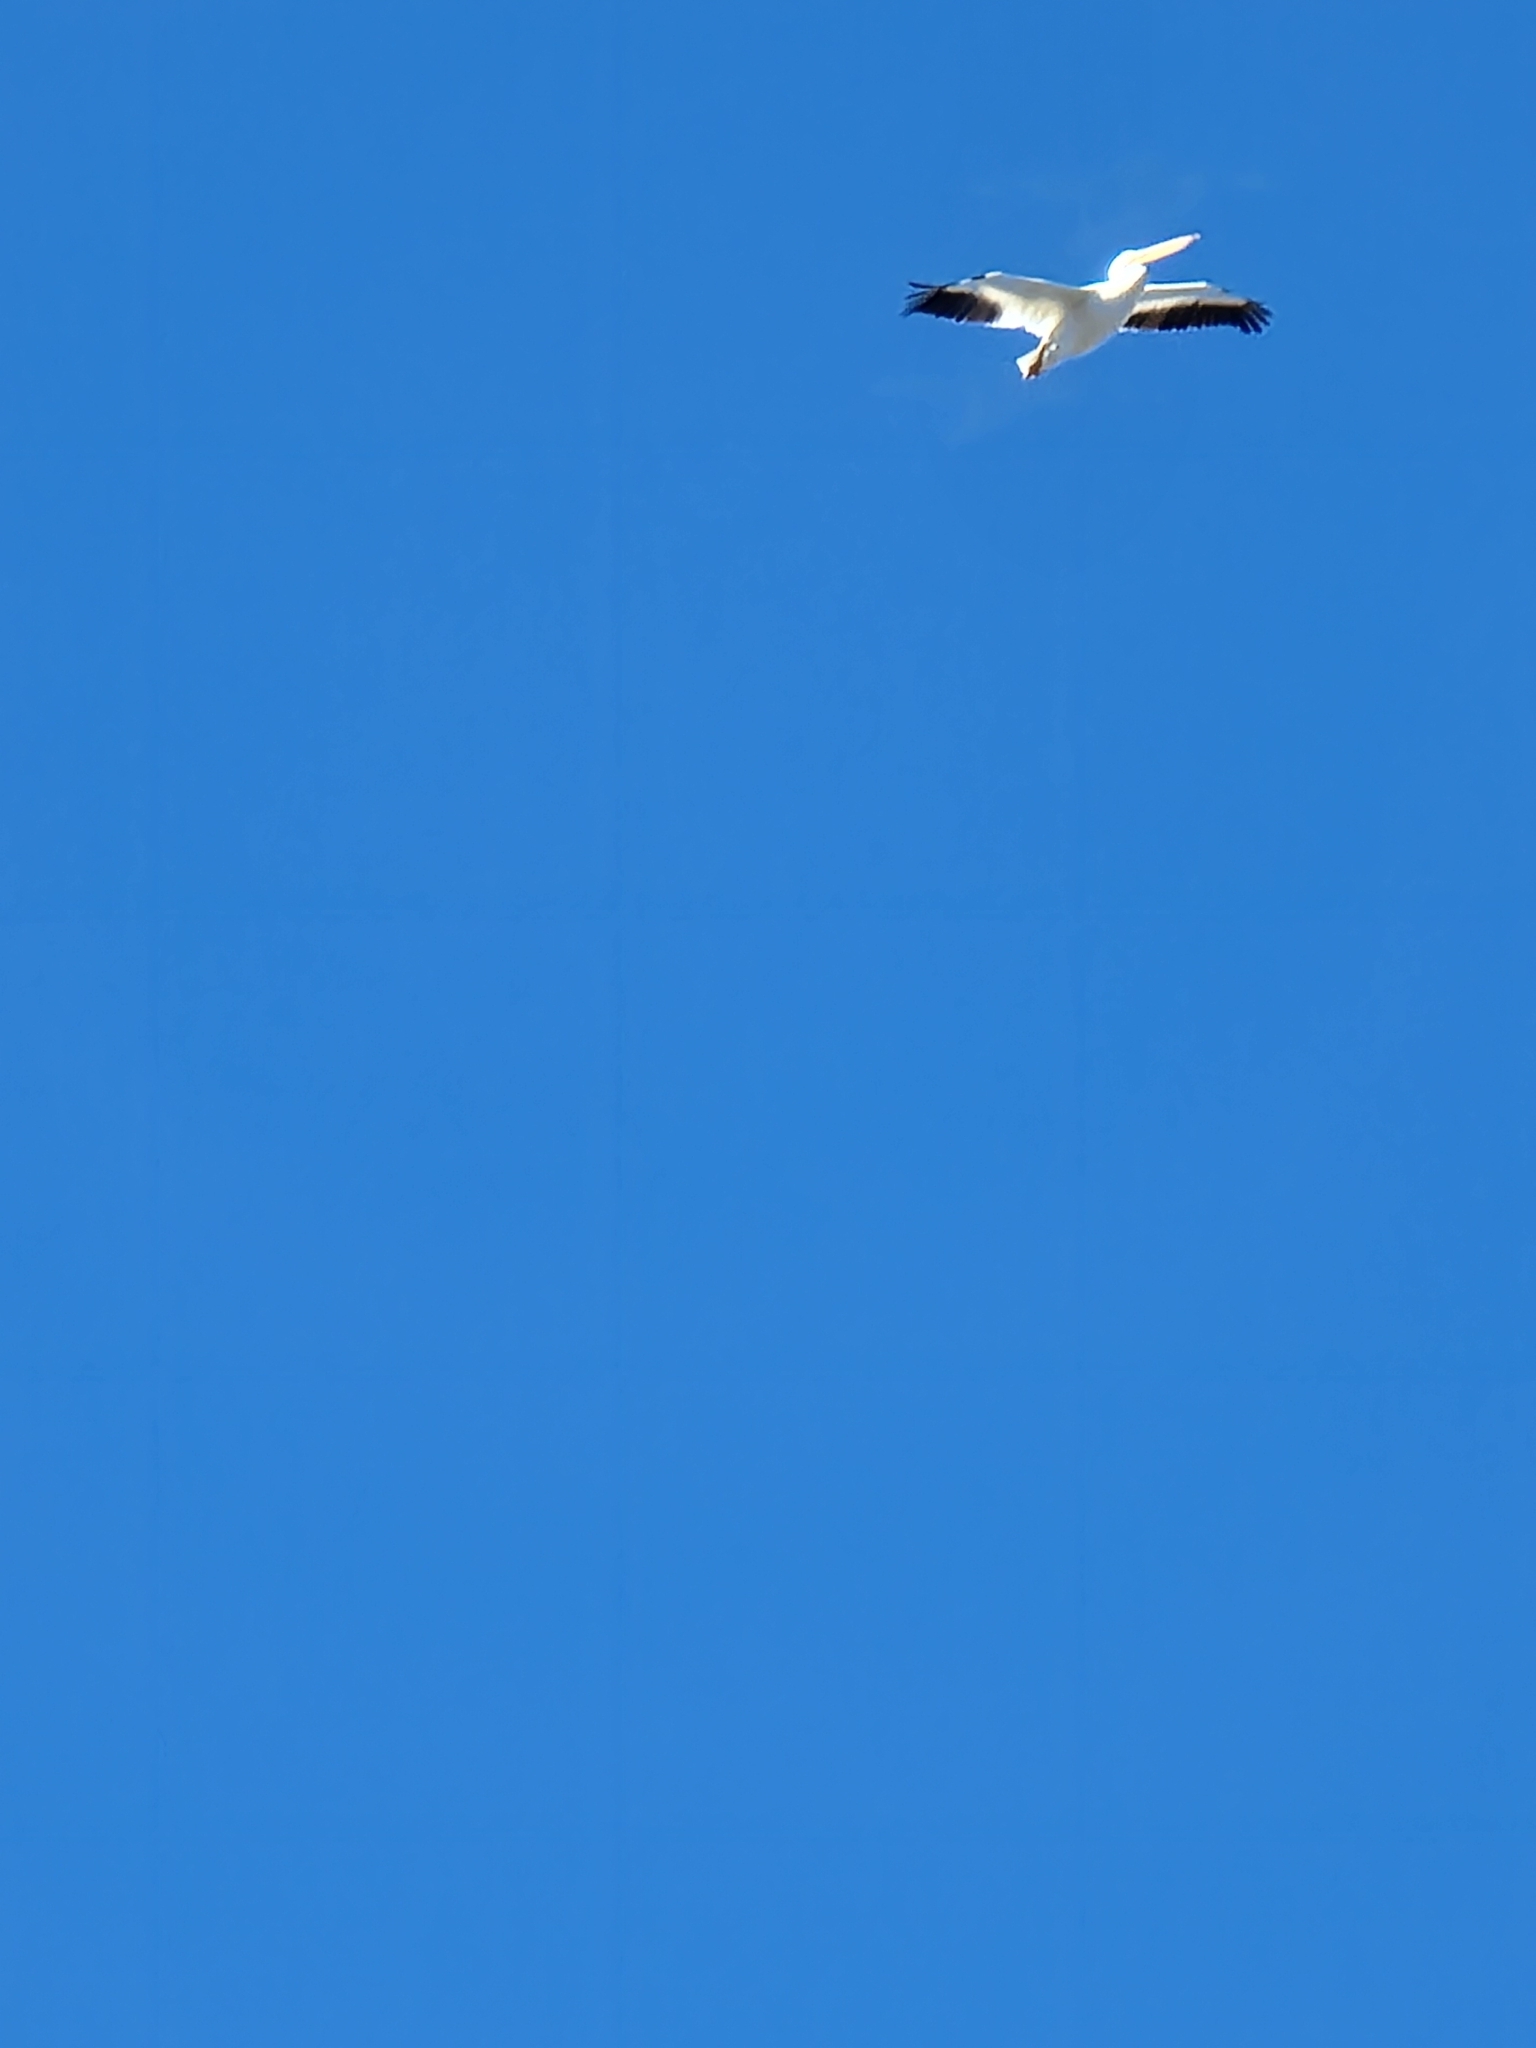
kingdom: Animalia
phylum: Chordata
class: Aves
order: Pelecaniformes
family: Pelecanidae
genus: Pelecanus
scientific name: Pelecanus erythrorhynchos
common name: American white pelican
